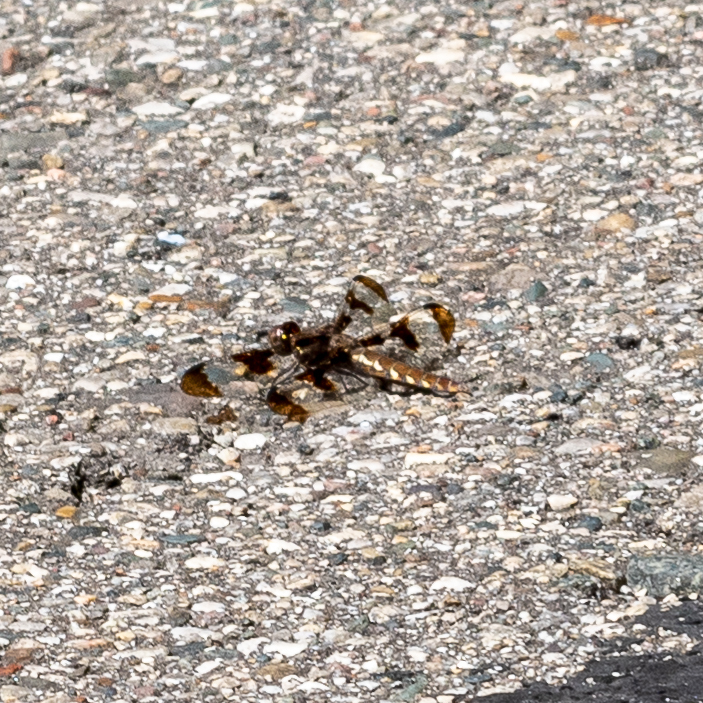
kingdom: Animalia
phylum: Arthropoda
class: Insecta
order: Odonata
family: Libellulidae
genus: Plathemis
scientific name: Plathemis lydia
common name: Common whitetail
